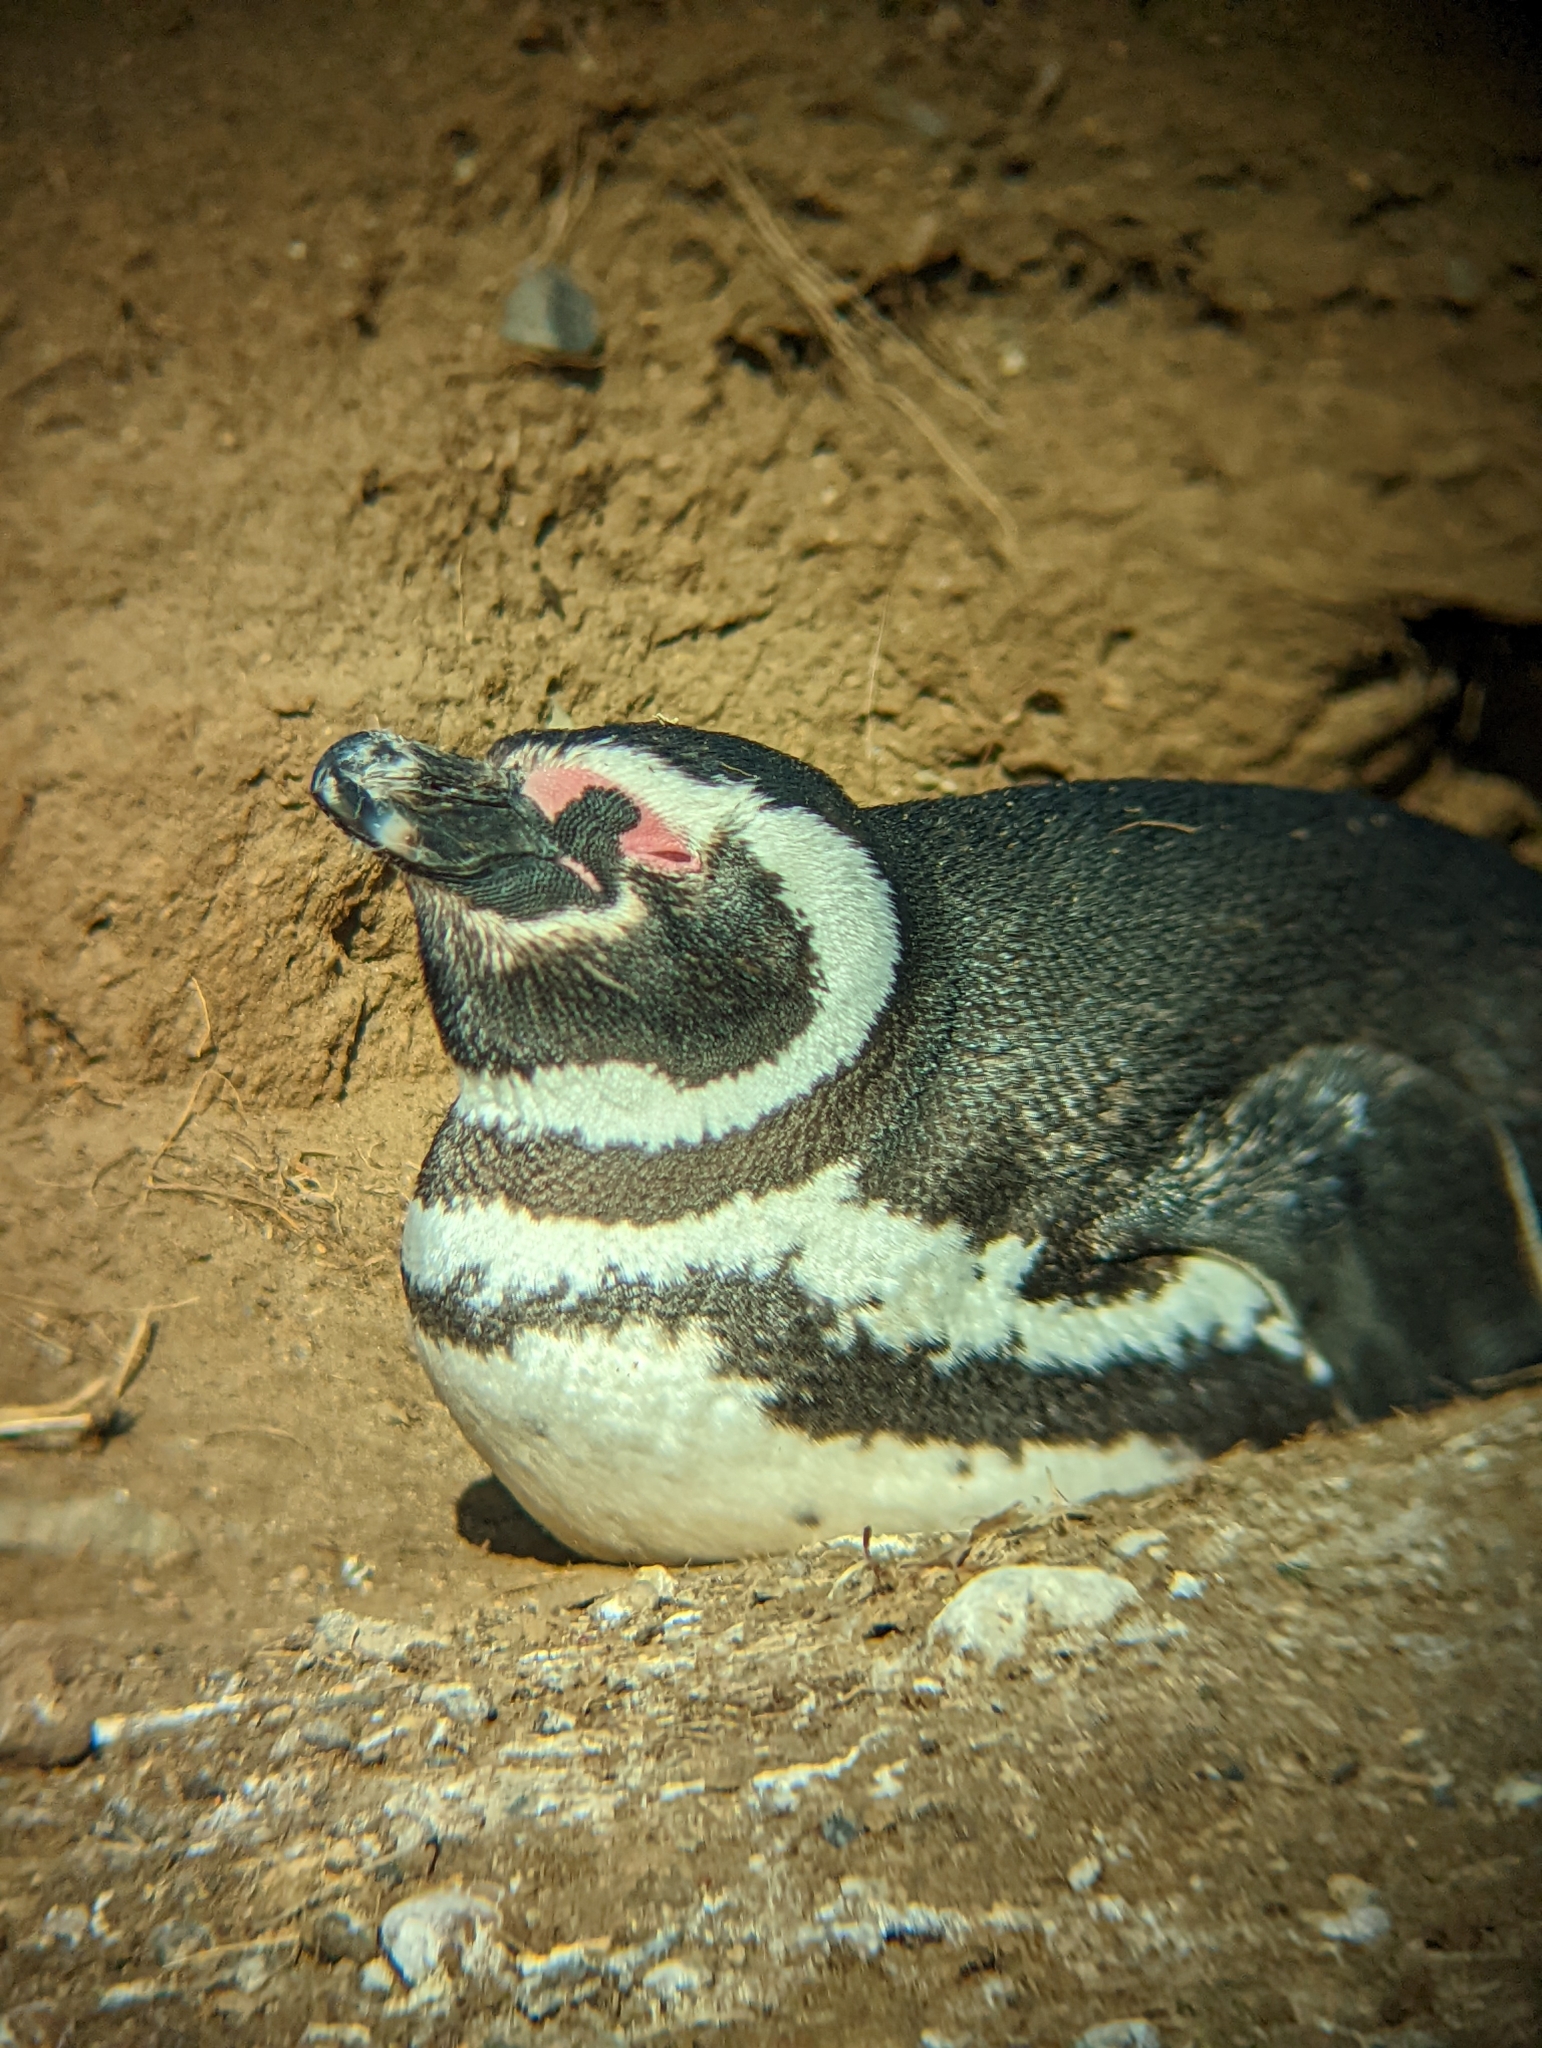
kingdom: Animalia
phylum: Chordata
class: Aves
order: Sphenisciformes
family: Spheniscidae
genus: Spheniscus
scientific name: Spheniscus magellanicus
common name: Magellanic penguin
